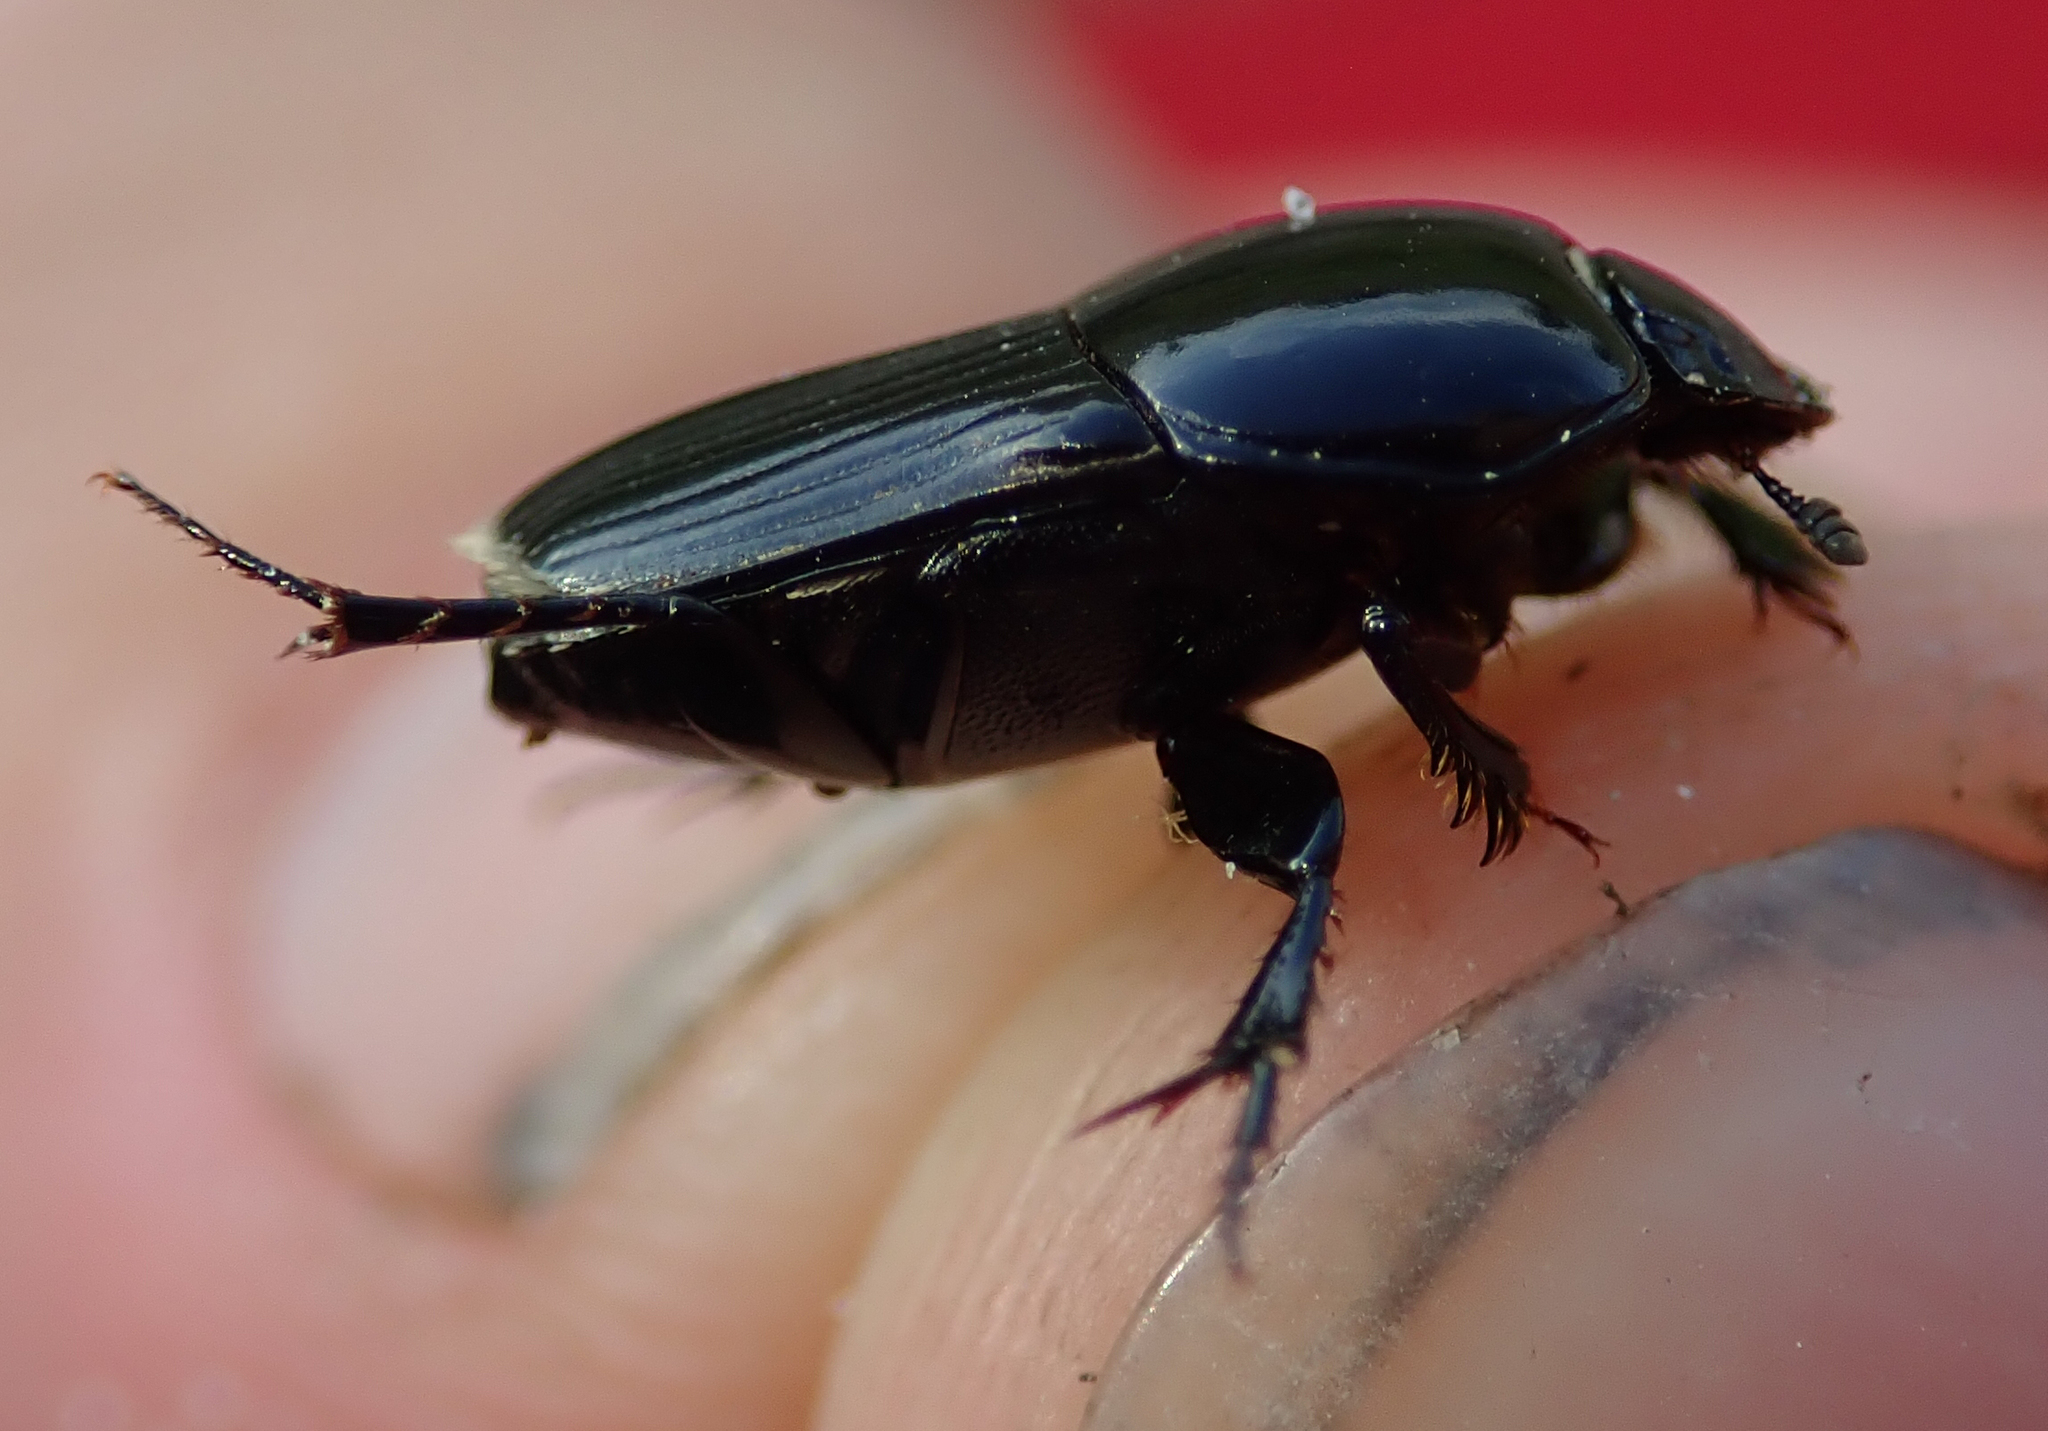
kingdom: Animalia
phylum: Arthropoda
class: Insecta
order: Coleoptera
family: Scarabaeidae
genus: Oniticellus
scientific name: Oniticellus planatus
